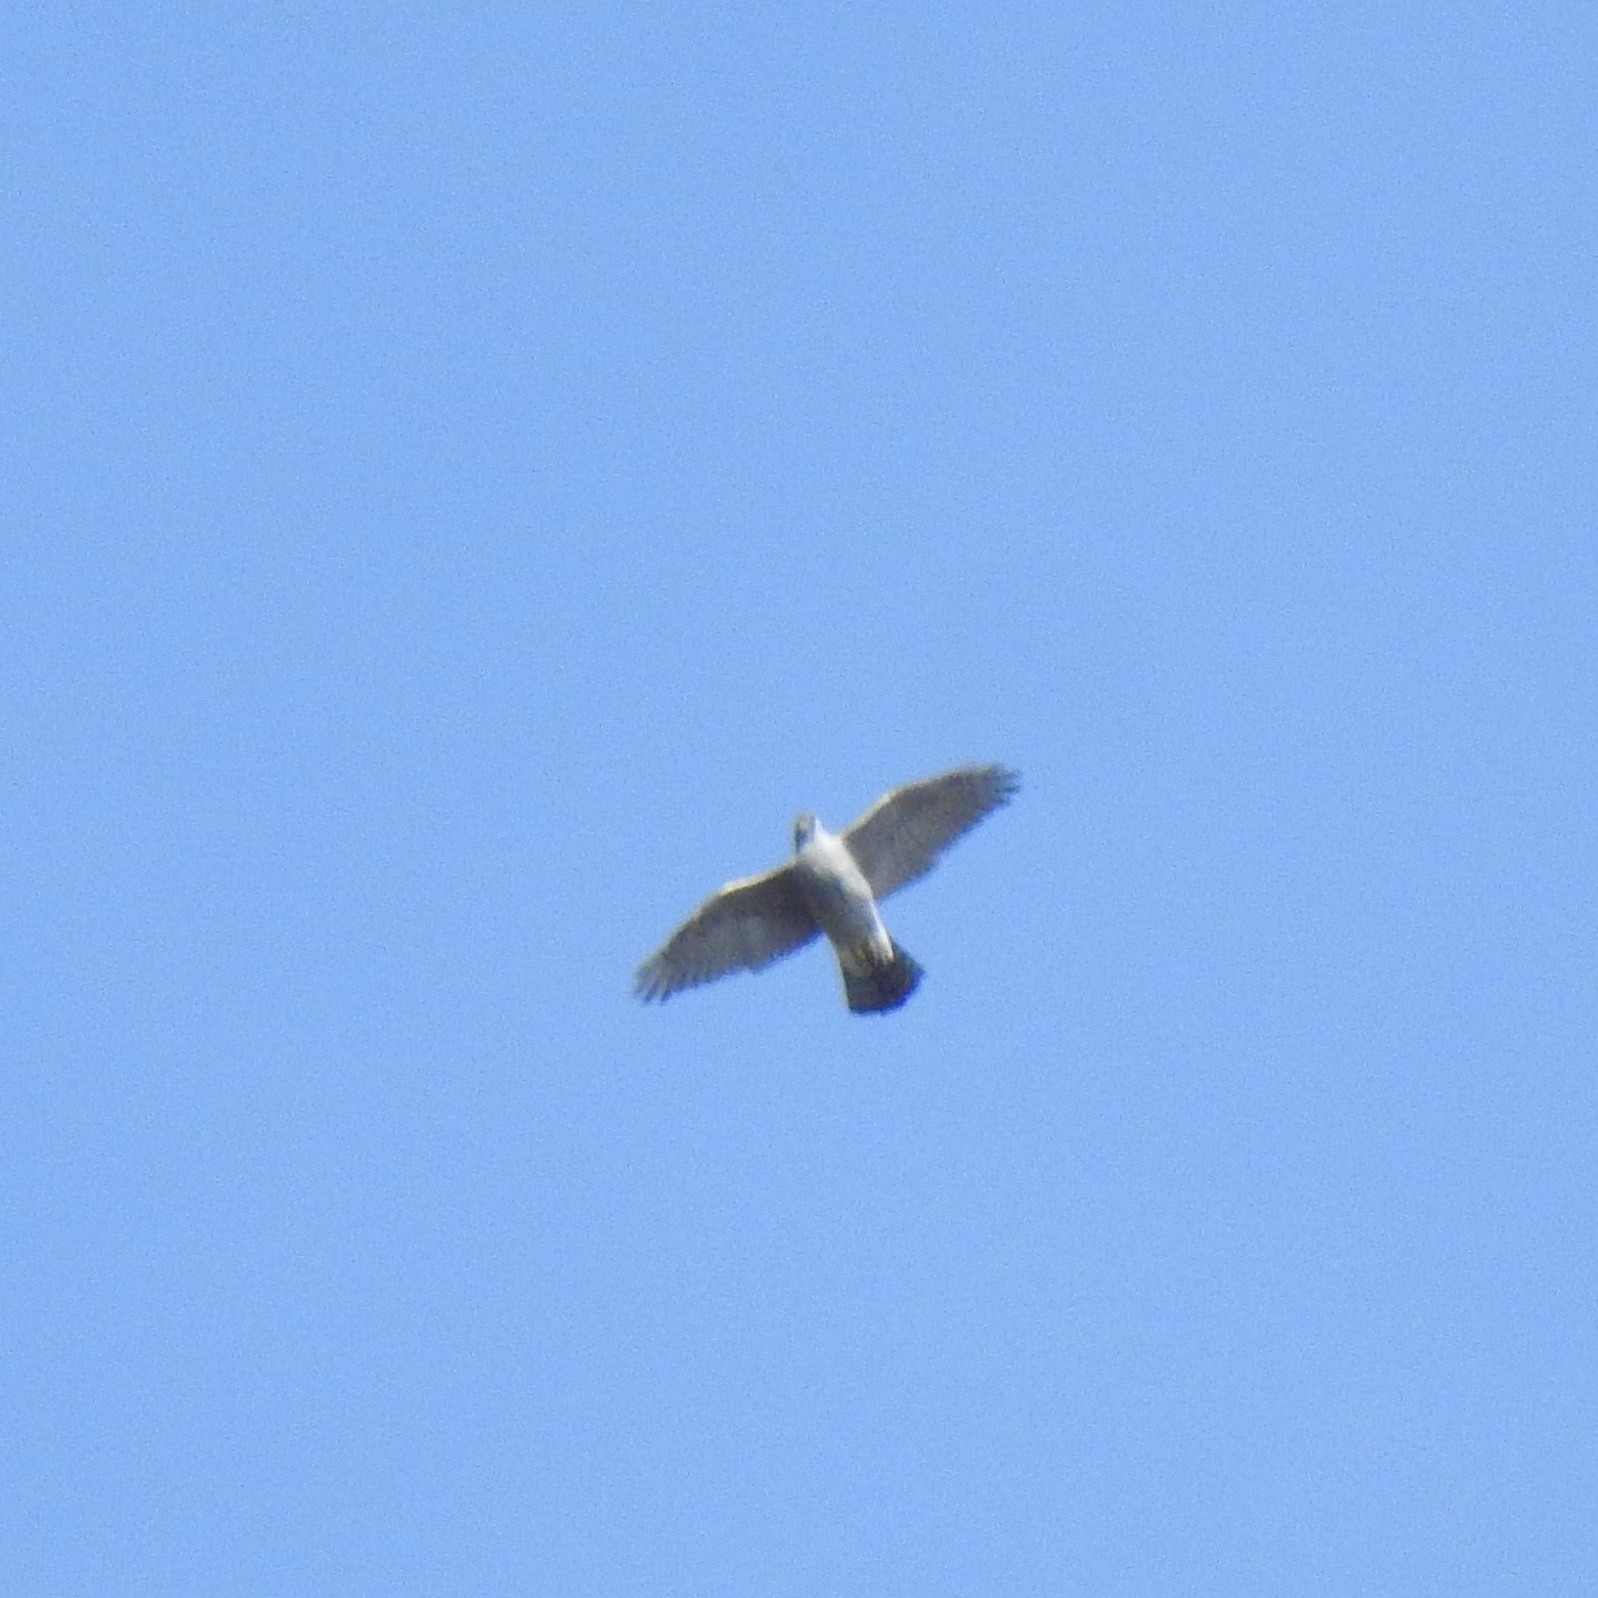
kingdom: Animalia
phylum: Chordata
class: Aves
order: Accipitriformes
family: Accipitridae
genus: Accipiter
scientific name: Accipiter gentilis
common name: Northern goshawk
